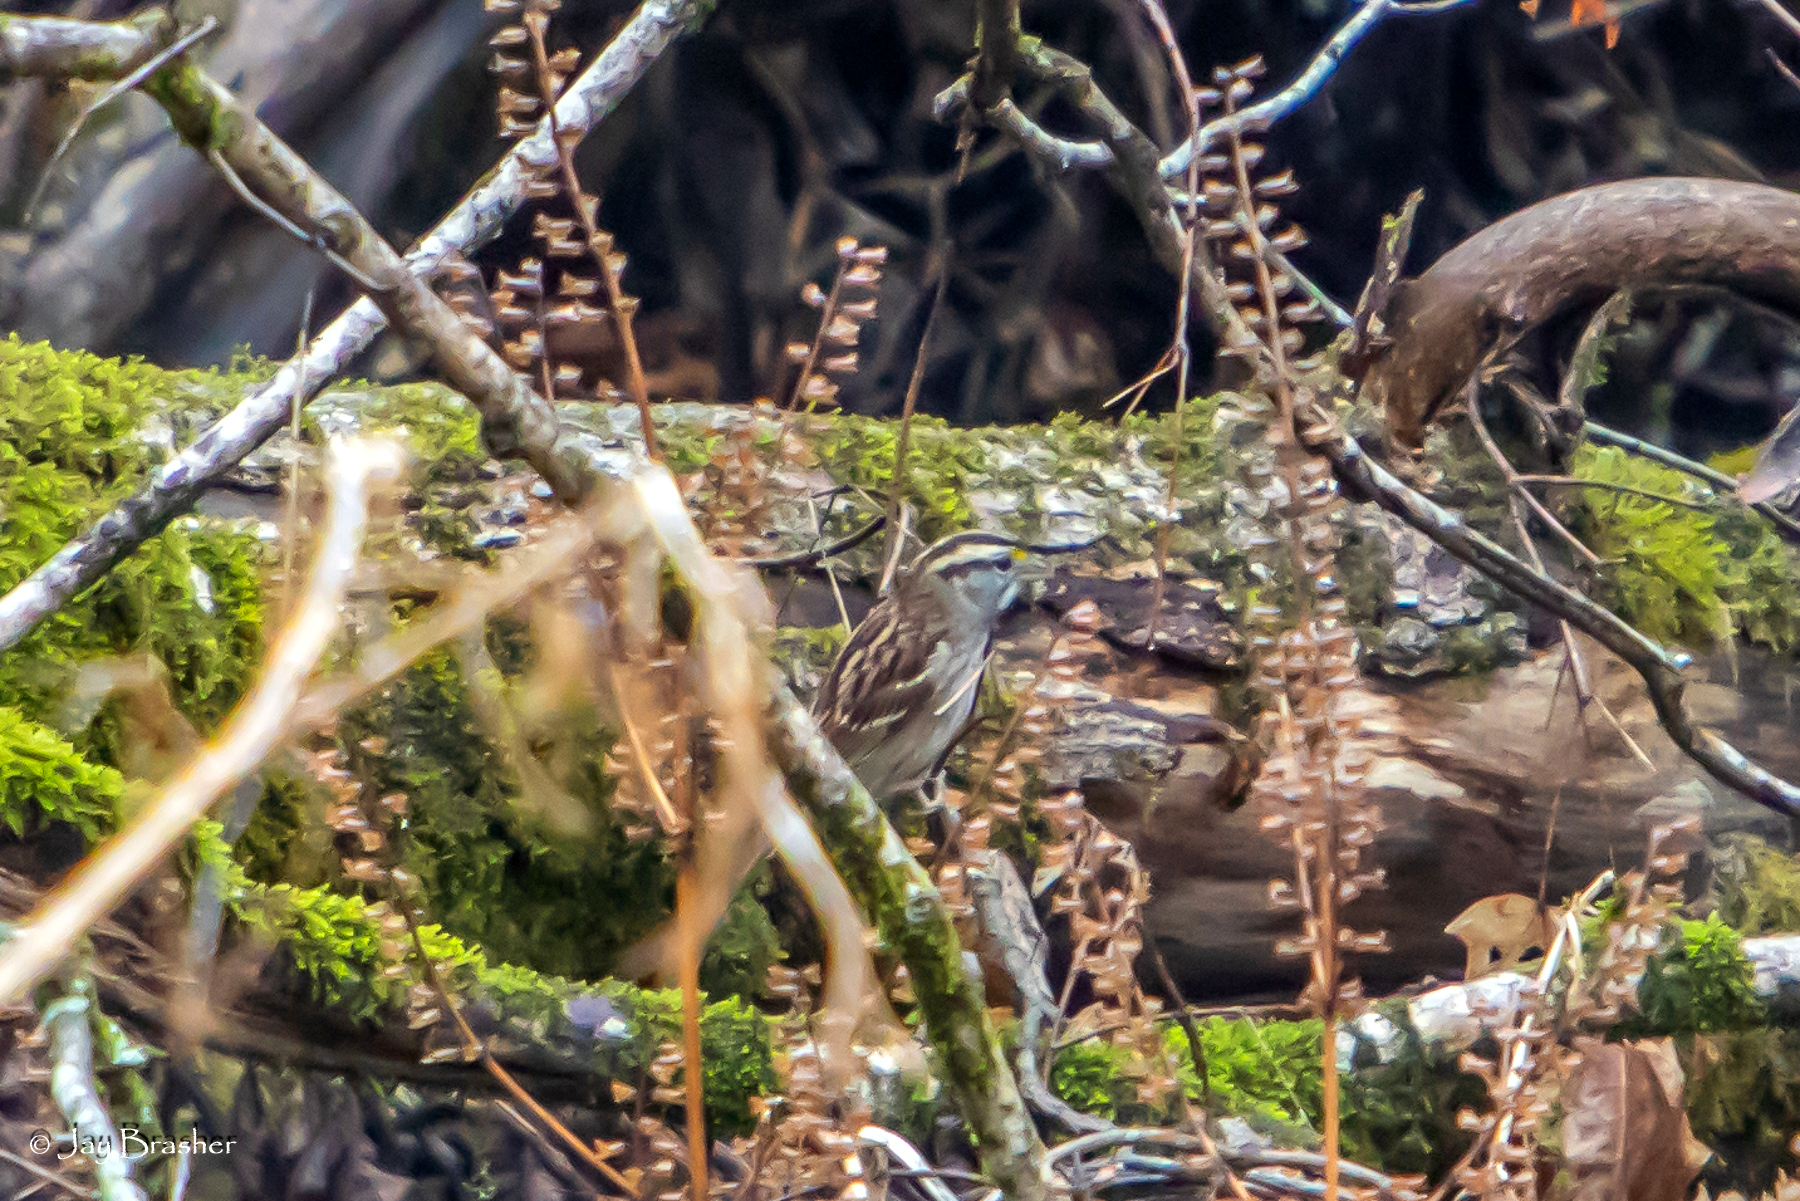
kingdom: Animalia
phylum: Chordata
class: Aves
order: Passeriformes
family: Passerellidae
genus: Zonotrichia
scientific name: Zonotrichia albicollis
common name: White-throated sparrow
